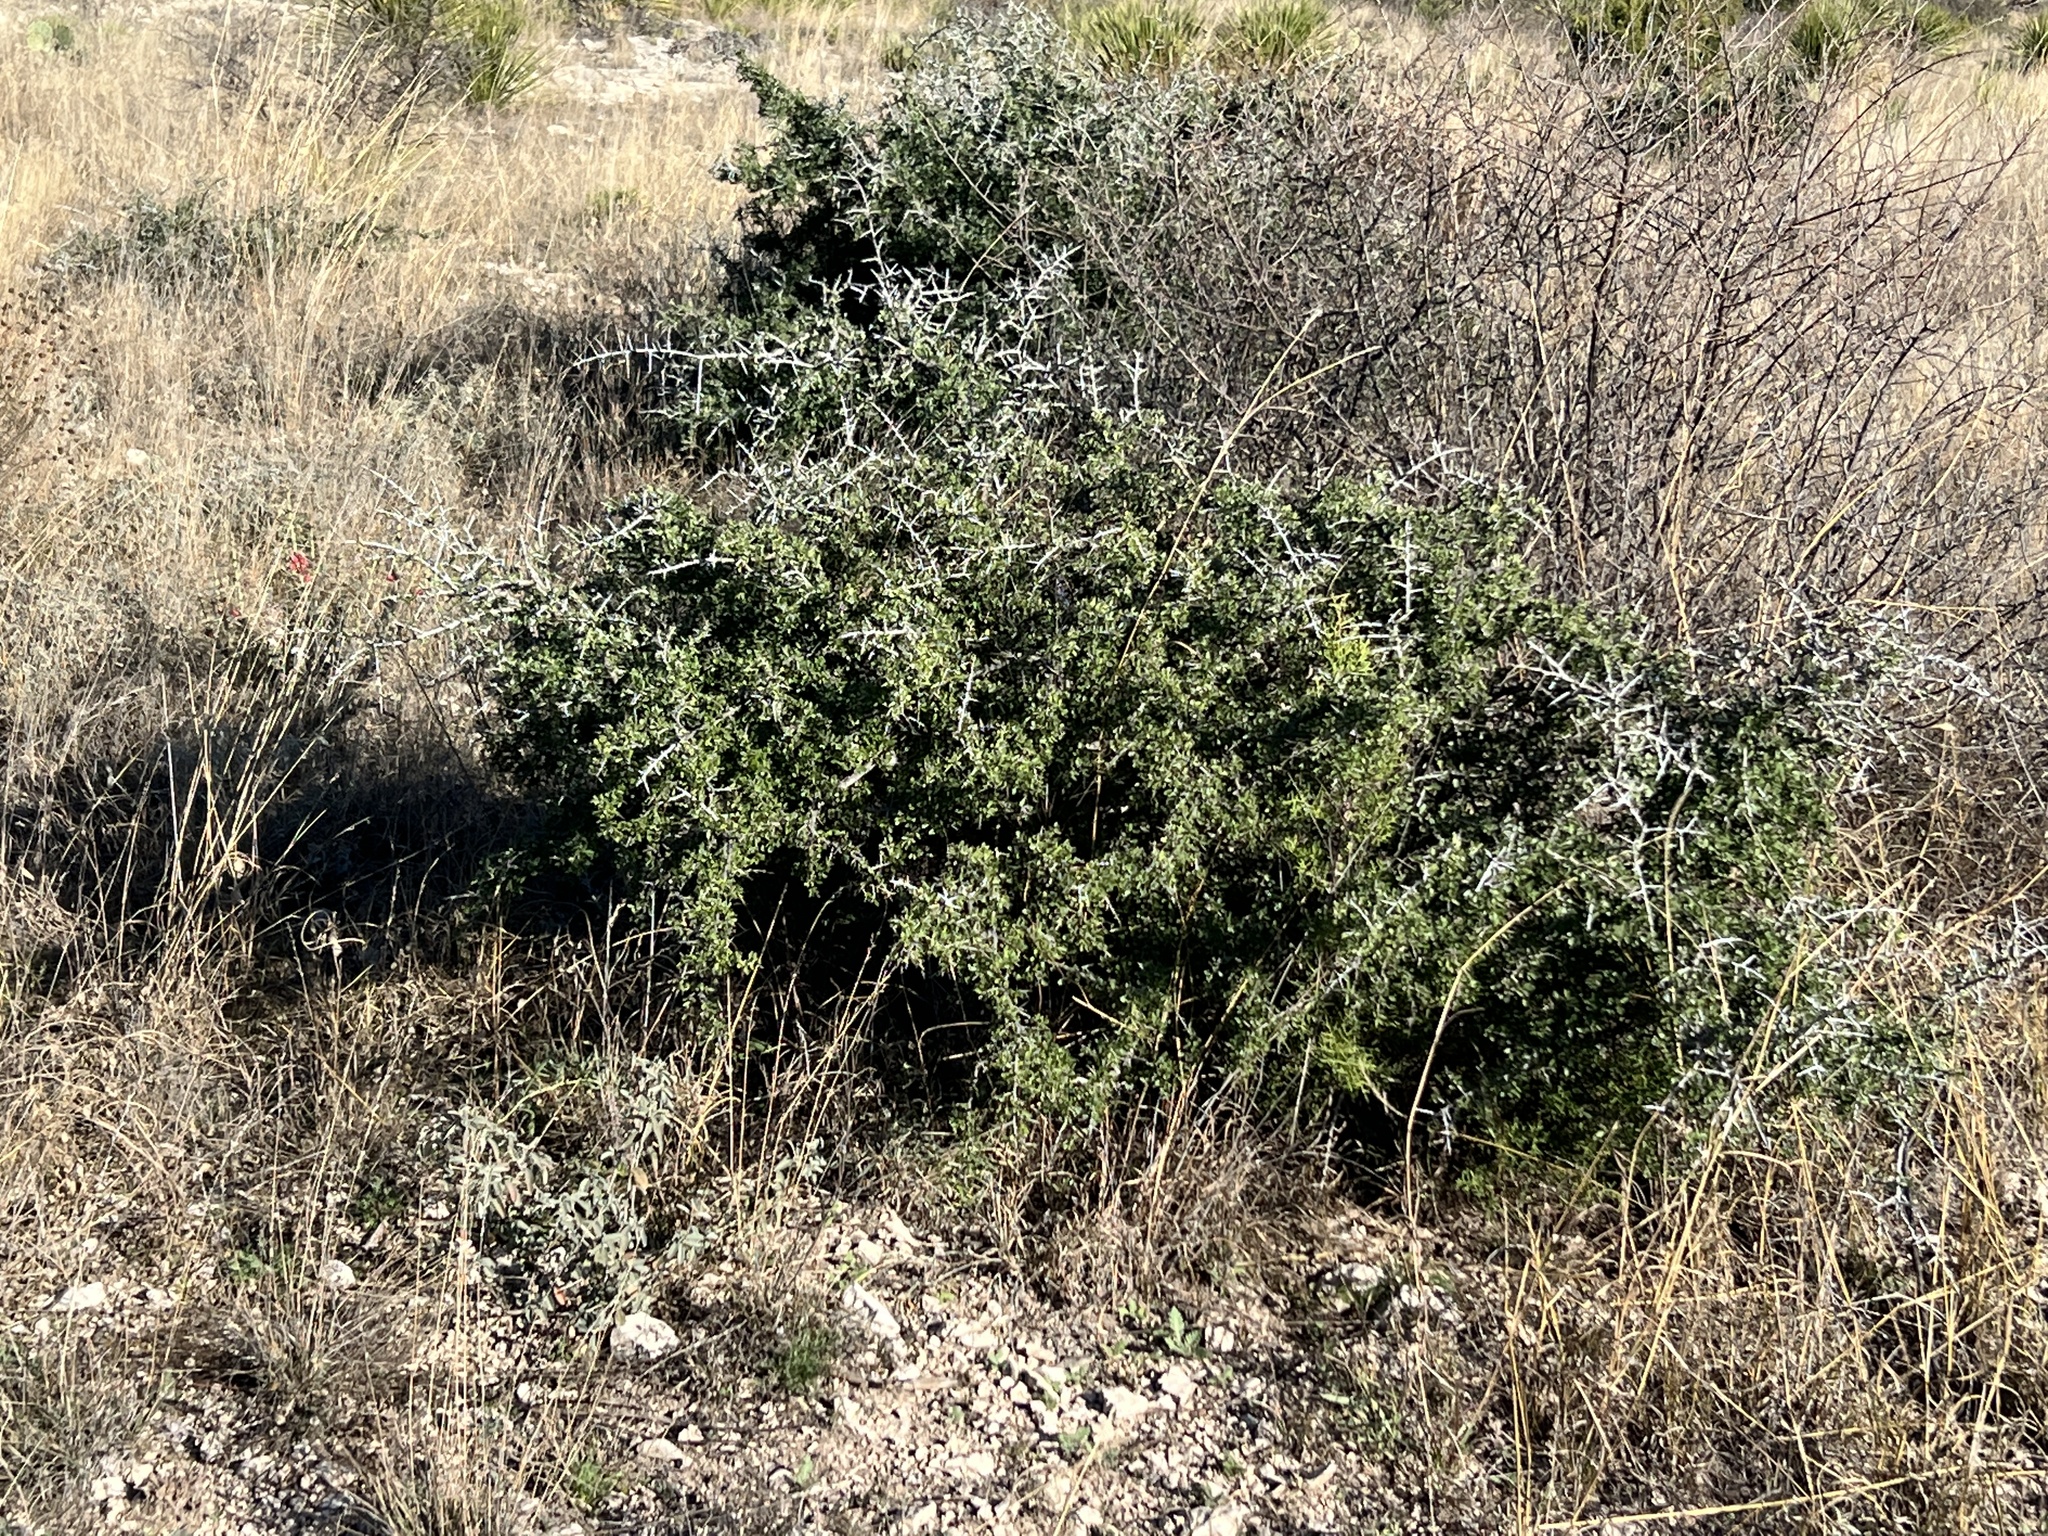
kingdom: Plantae
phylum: Tracheophyta
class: Magnoliopsida
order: Rosales
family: Rhamnaceae
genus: Condalia
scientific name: Condalia viridis
